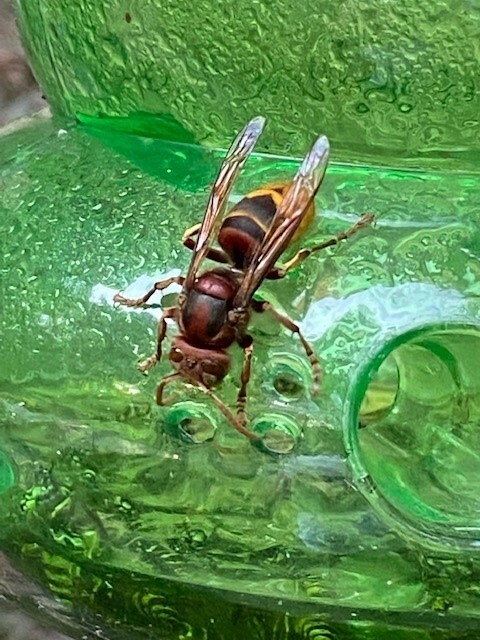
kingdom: Animalia
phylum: Arthropoda
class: Insecta
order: Hymenoptera
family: Vespidae
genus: Vespa
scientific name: Vespa crabro
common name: Hornet
